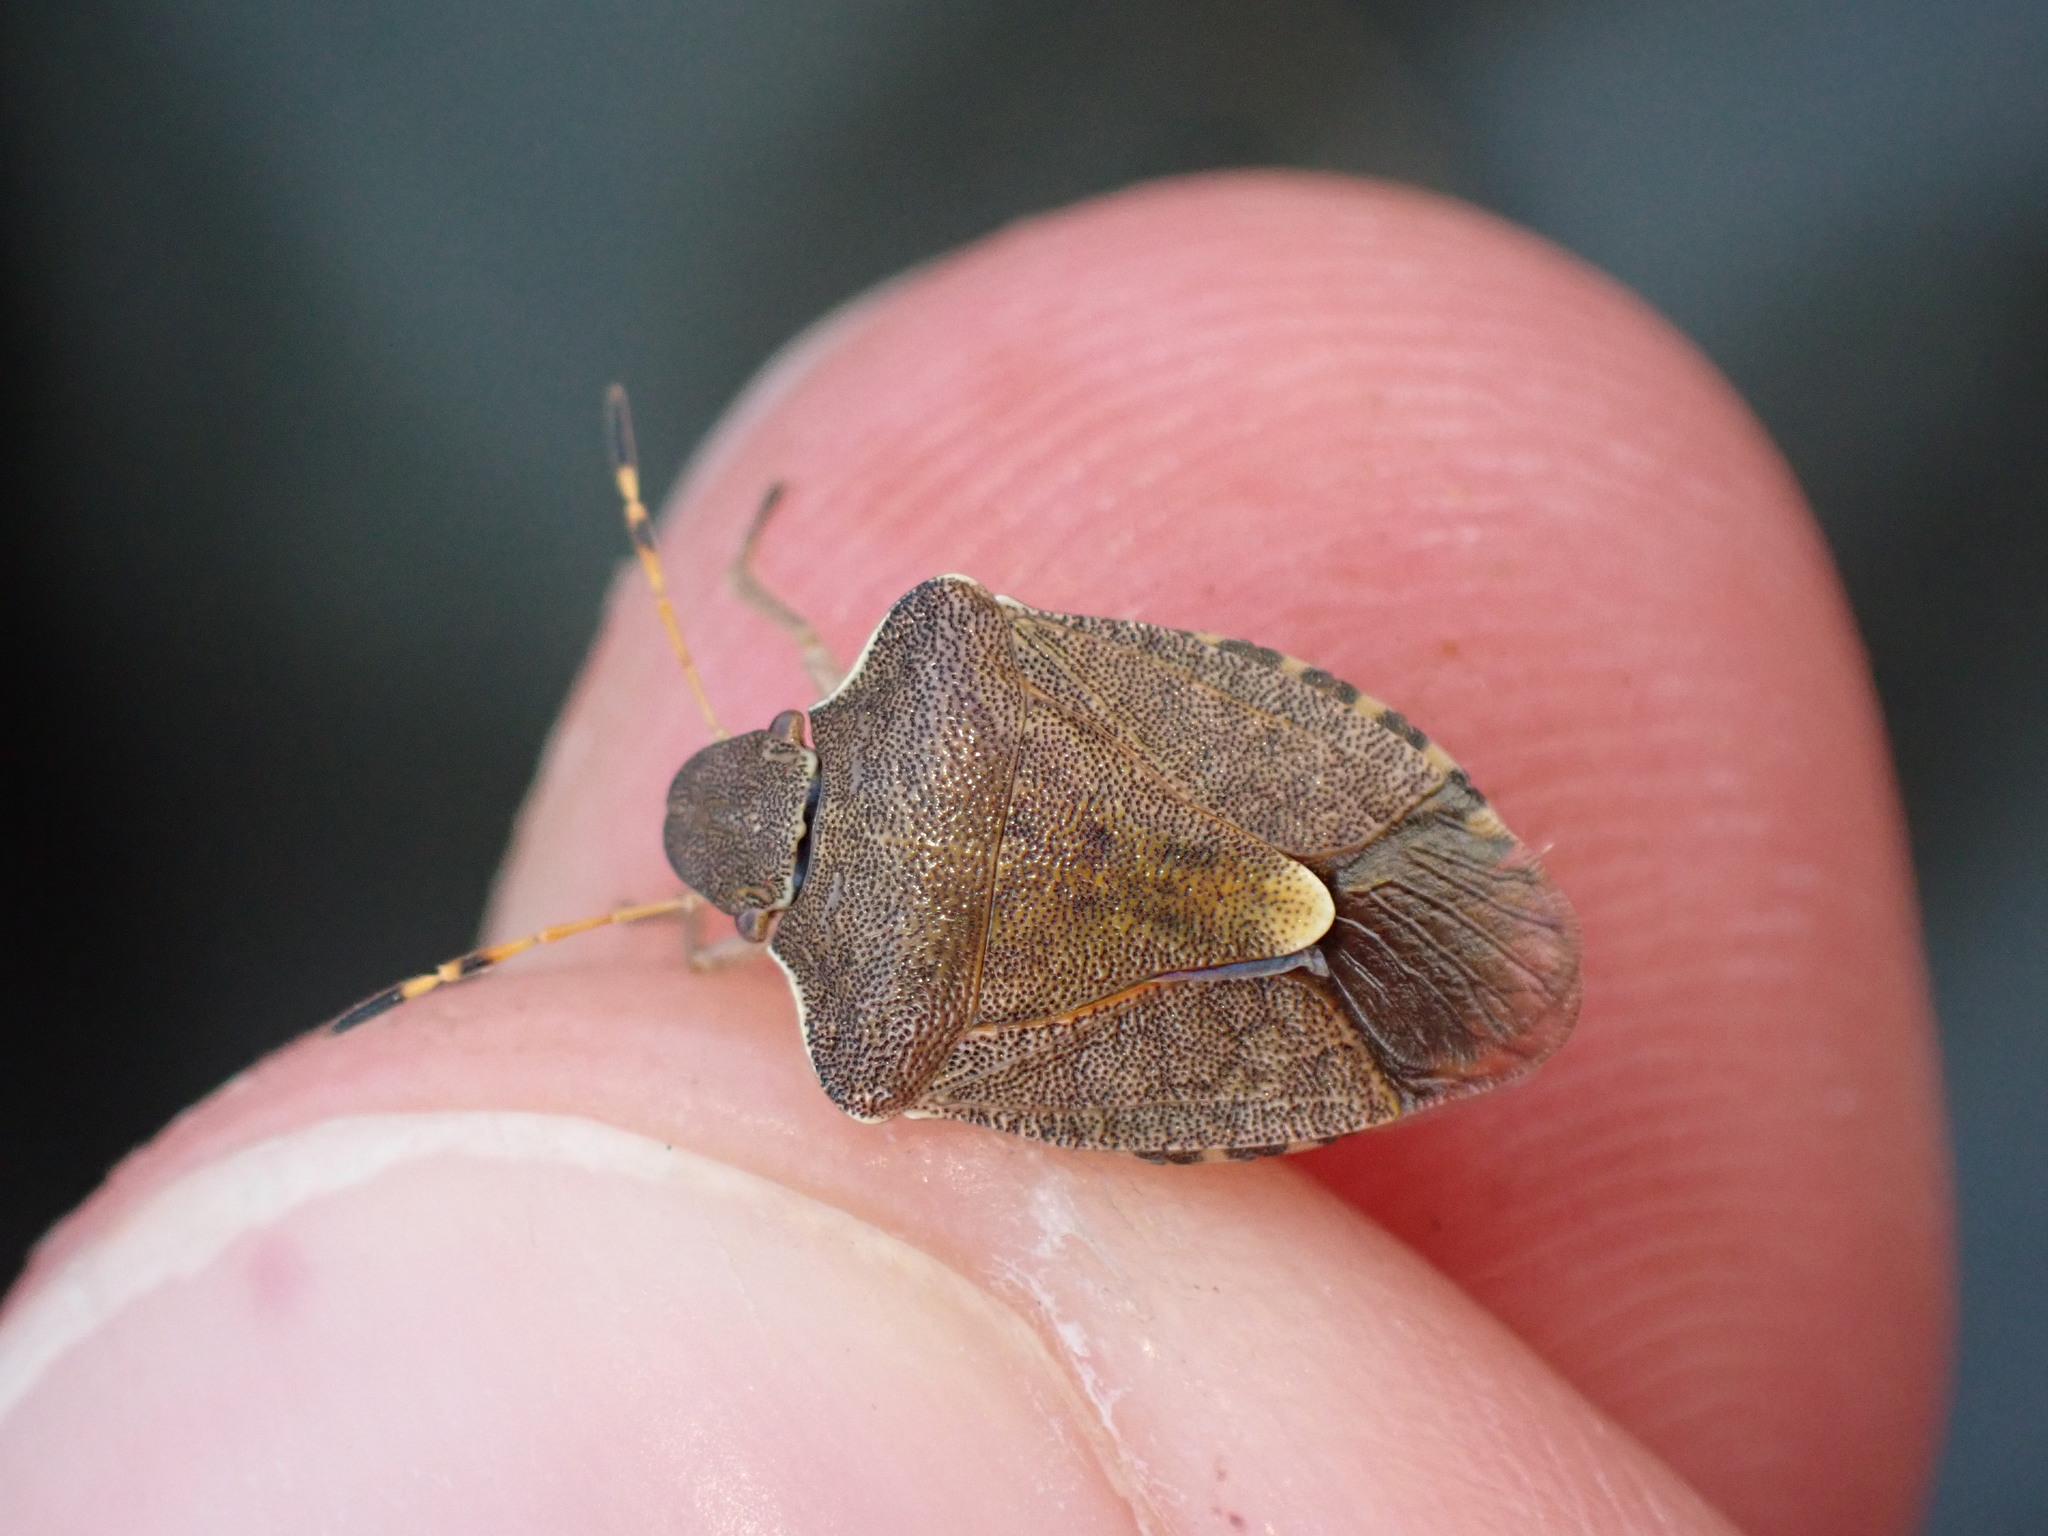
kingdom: Animalia
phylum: Arthropoda
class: Insecta
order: Hemiptera
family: Pentatomidae
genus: Holcostethus
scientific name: Holcostethus strictus
